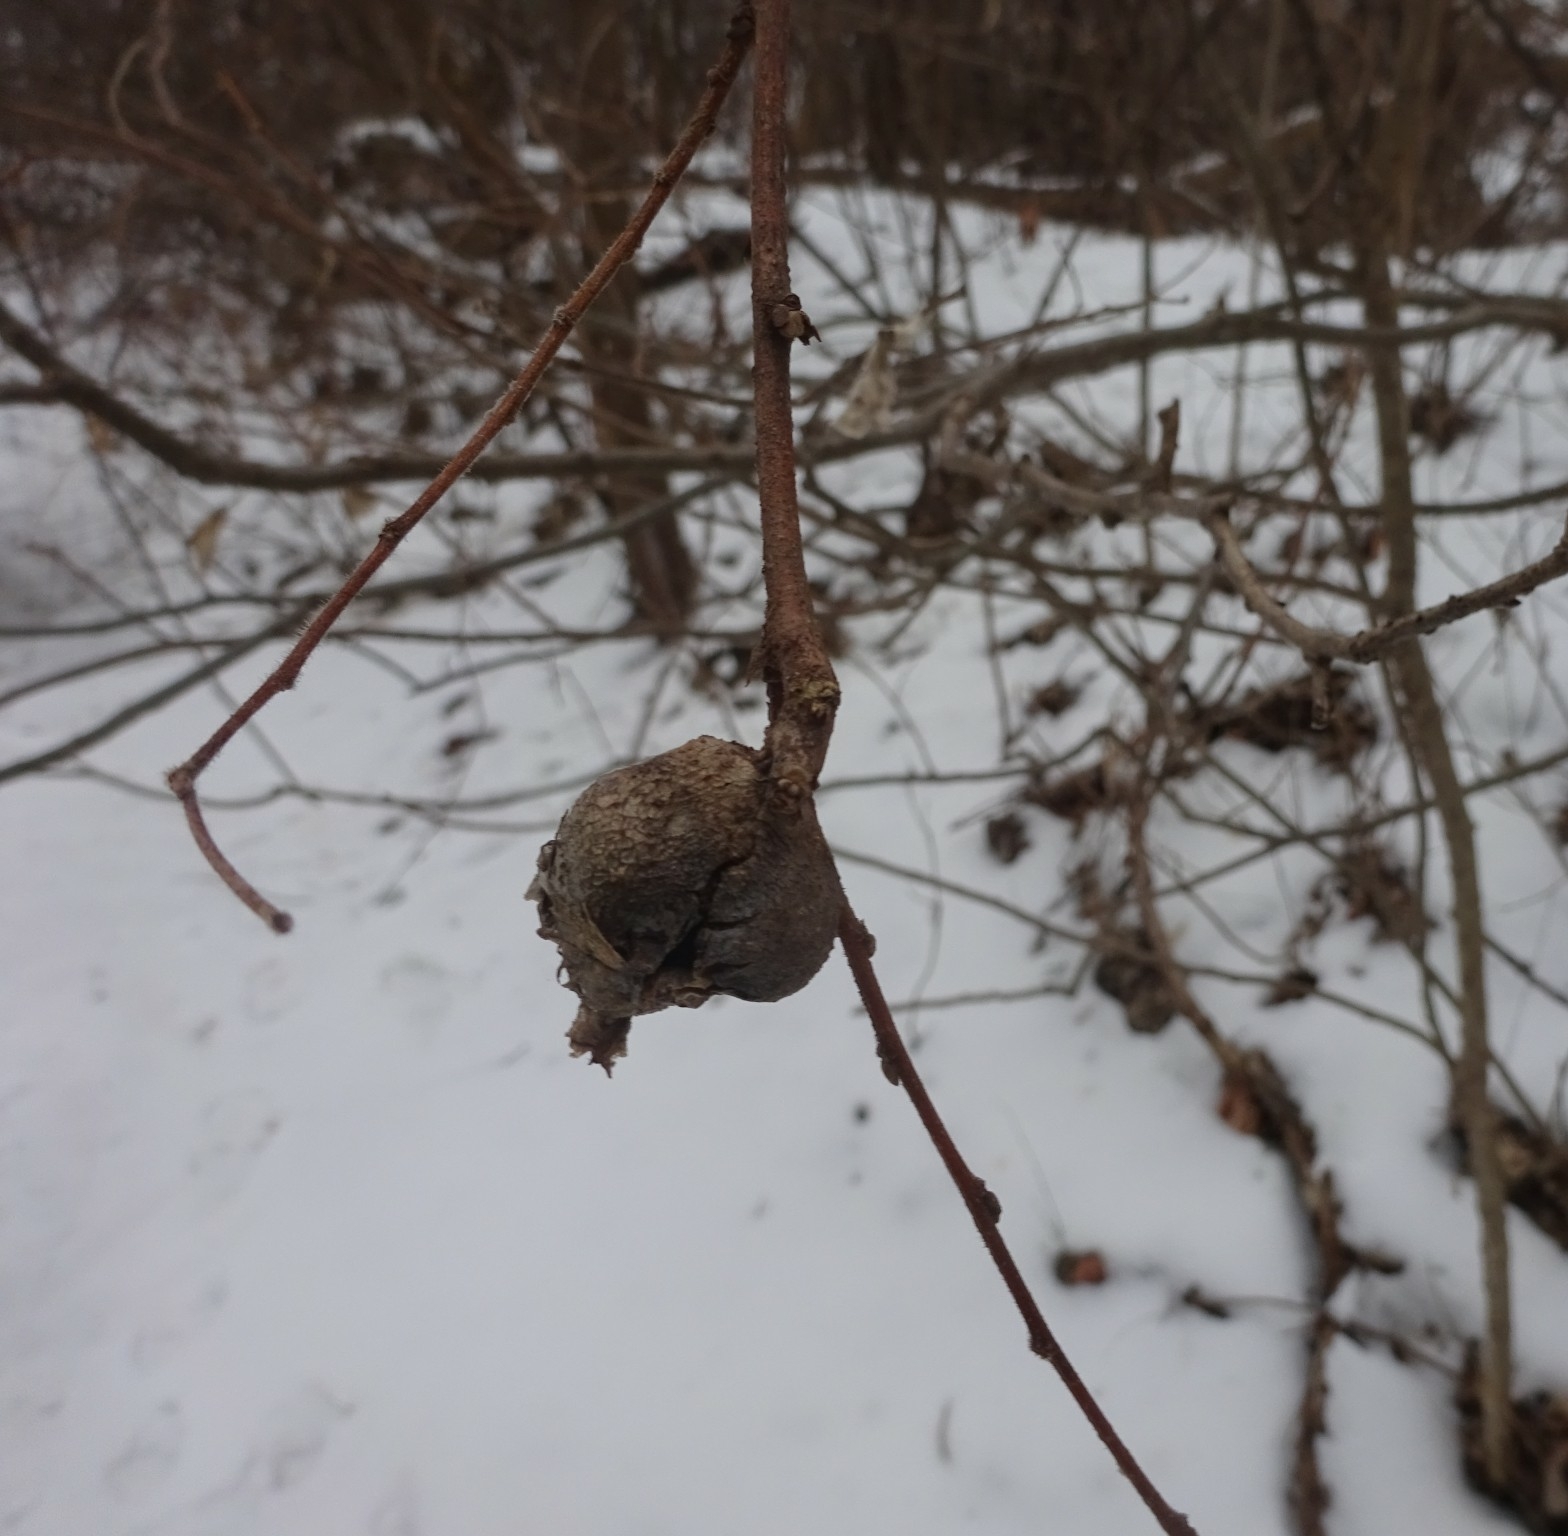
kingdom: Animalia
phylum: Arthropoda
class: Insecta
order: Hemiptera
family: Aphalaridae
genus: Pachypsylla
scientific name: Pachypsylla venusta
